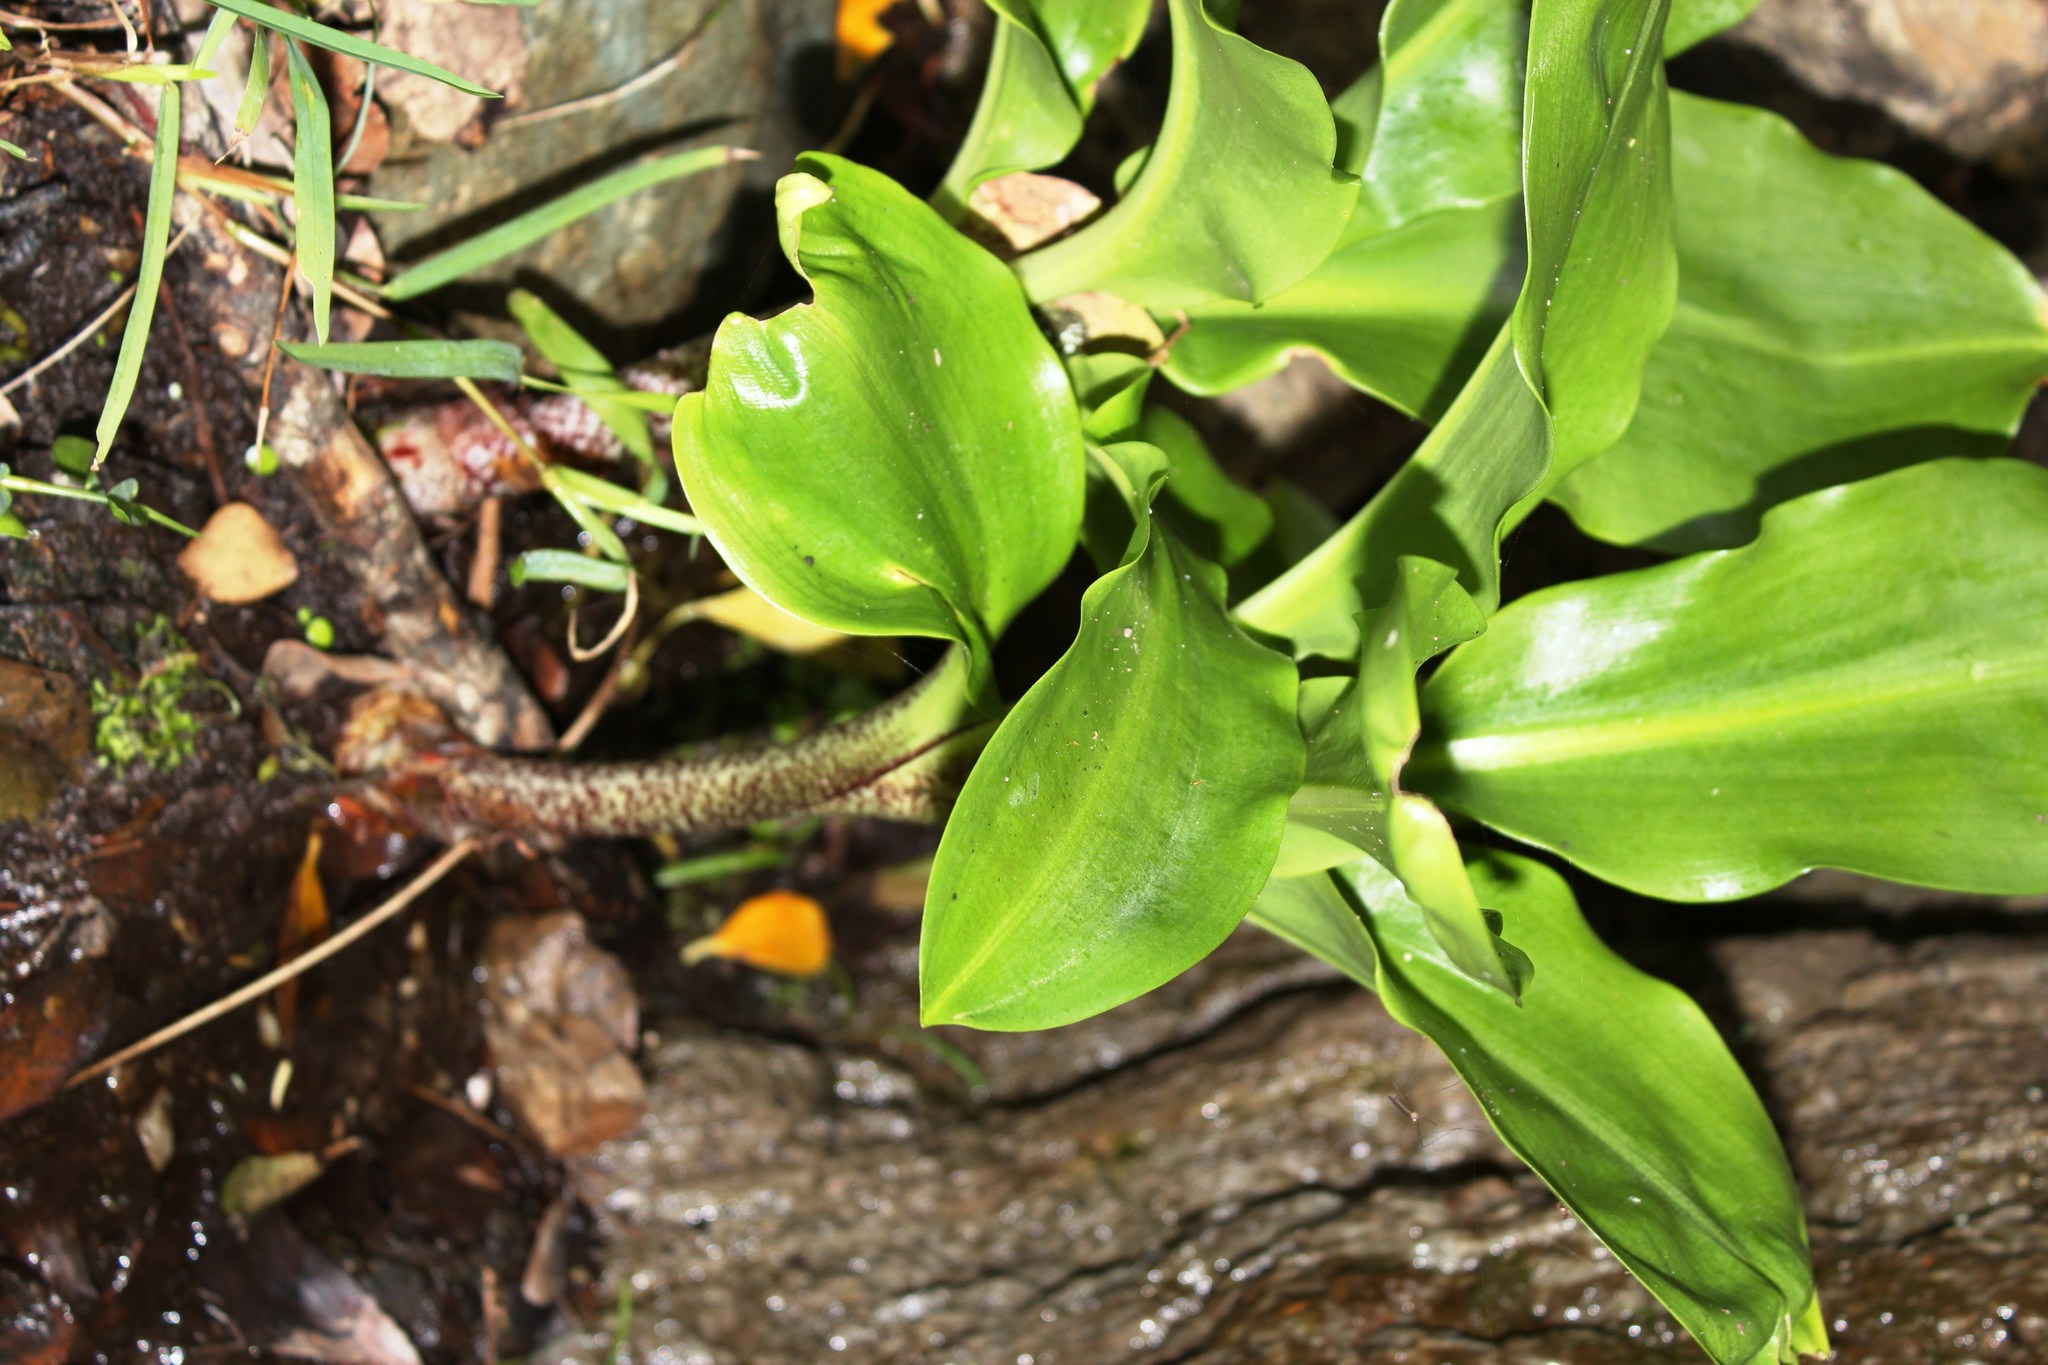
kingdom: Plantae
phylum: Tracheophyta
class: Liliopsida
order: Asparagales
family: Amaryllidaceae
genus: Scadoxus
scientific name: Scadoxus puniceus
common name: Royal-paintbrush
